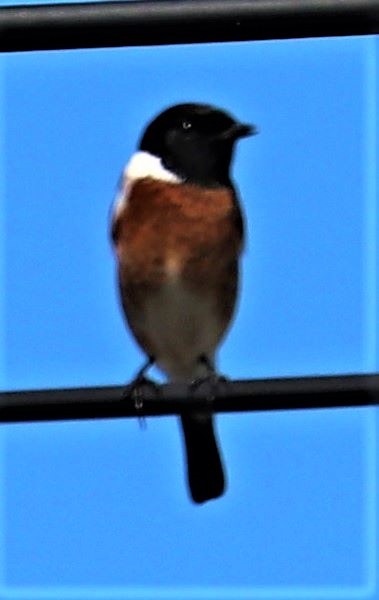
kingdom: Animalia
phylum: Chordata
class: Aves
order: Passeriformes
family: Muscicapidae
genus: Saxicola
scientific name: Saxicola torquatus
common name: African stonechat
